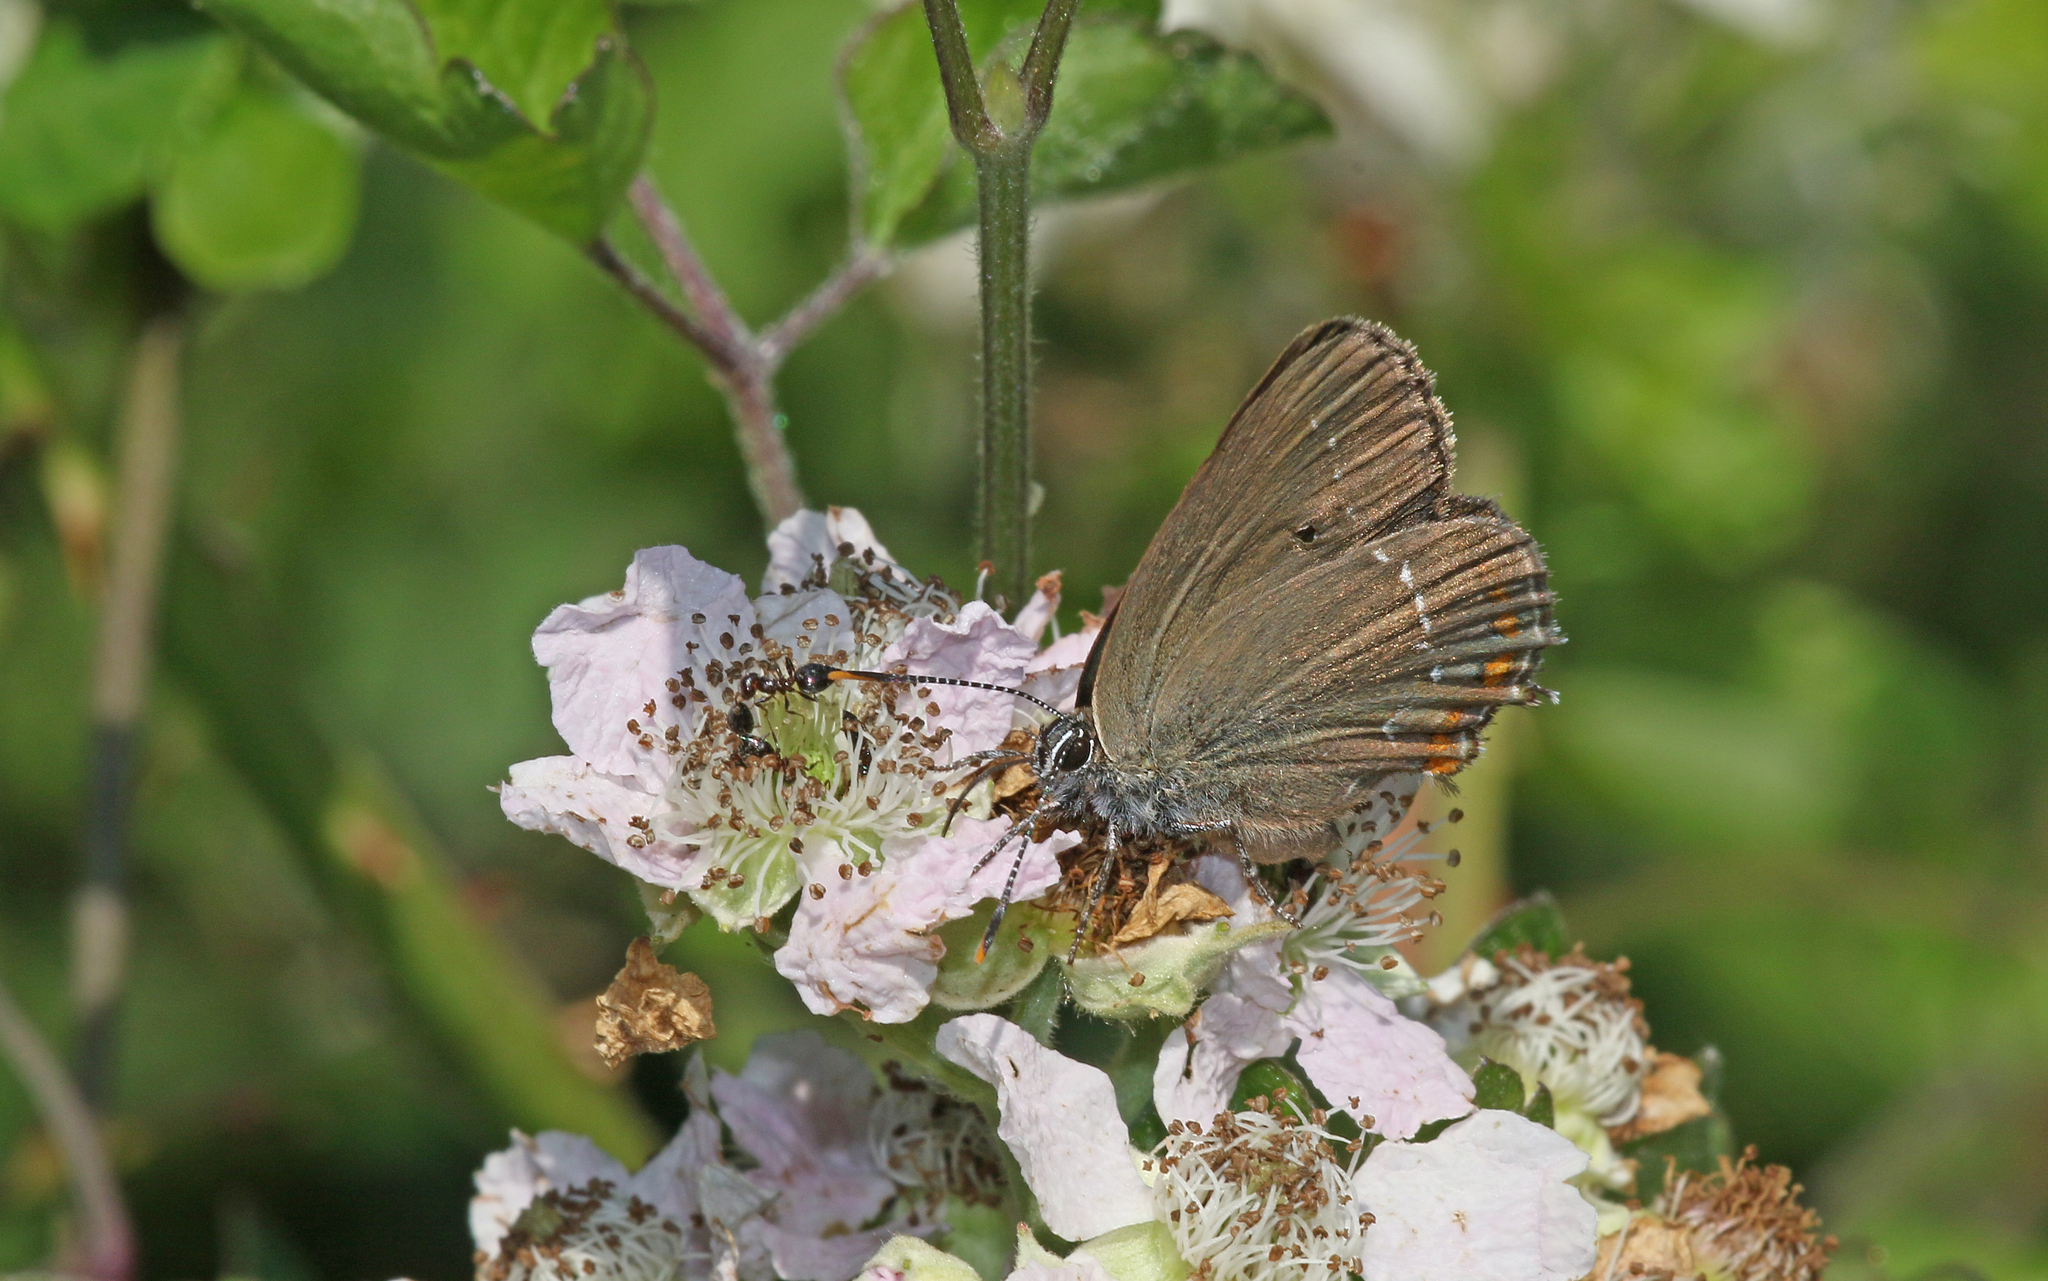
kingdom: Animalia
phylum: Arthropoda
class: Insecta
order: Lepidoptera
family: Lycaenidae
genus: Nordmannia
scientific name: Nordmannia ilicis
